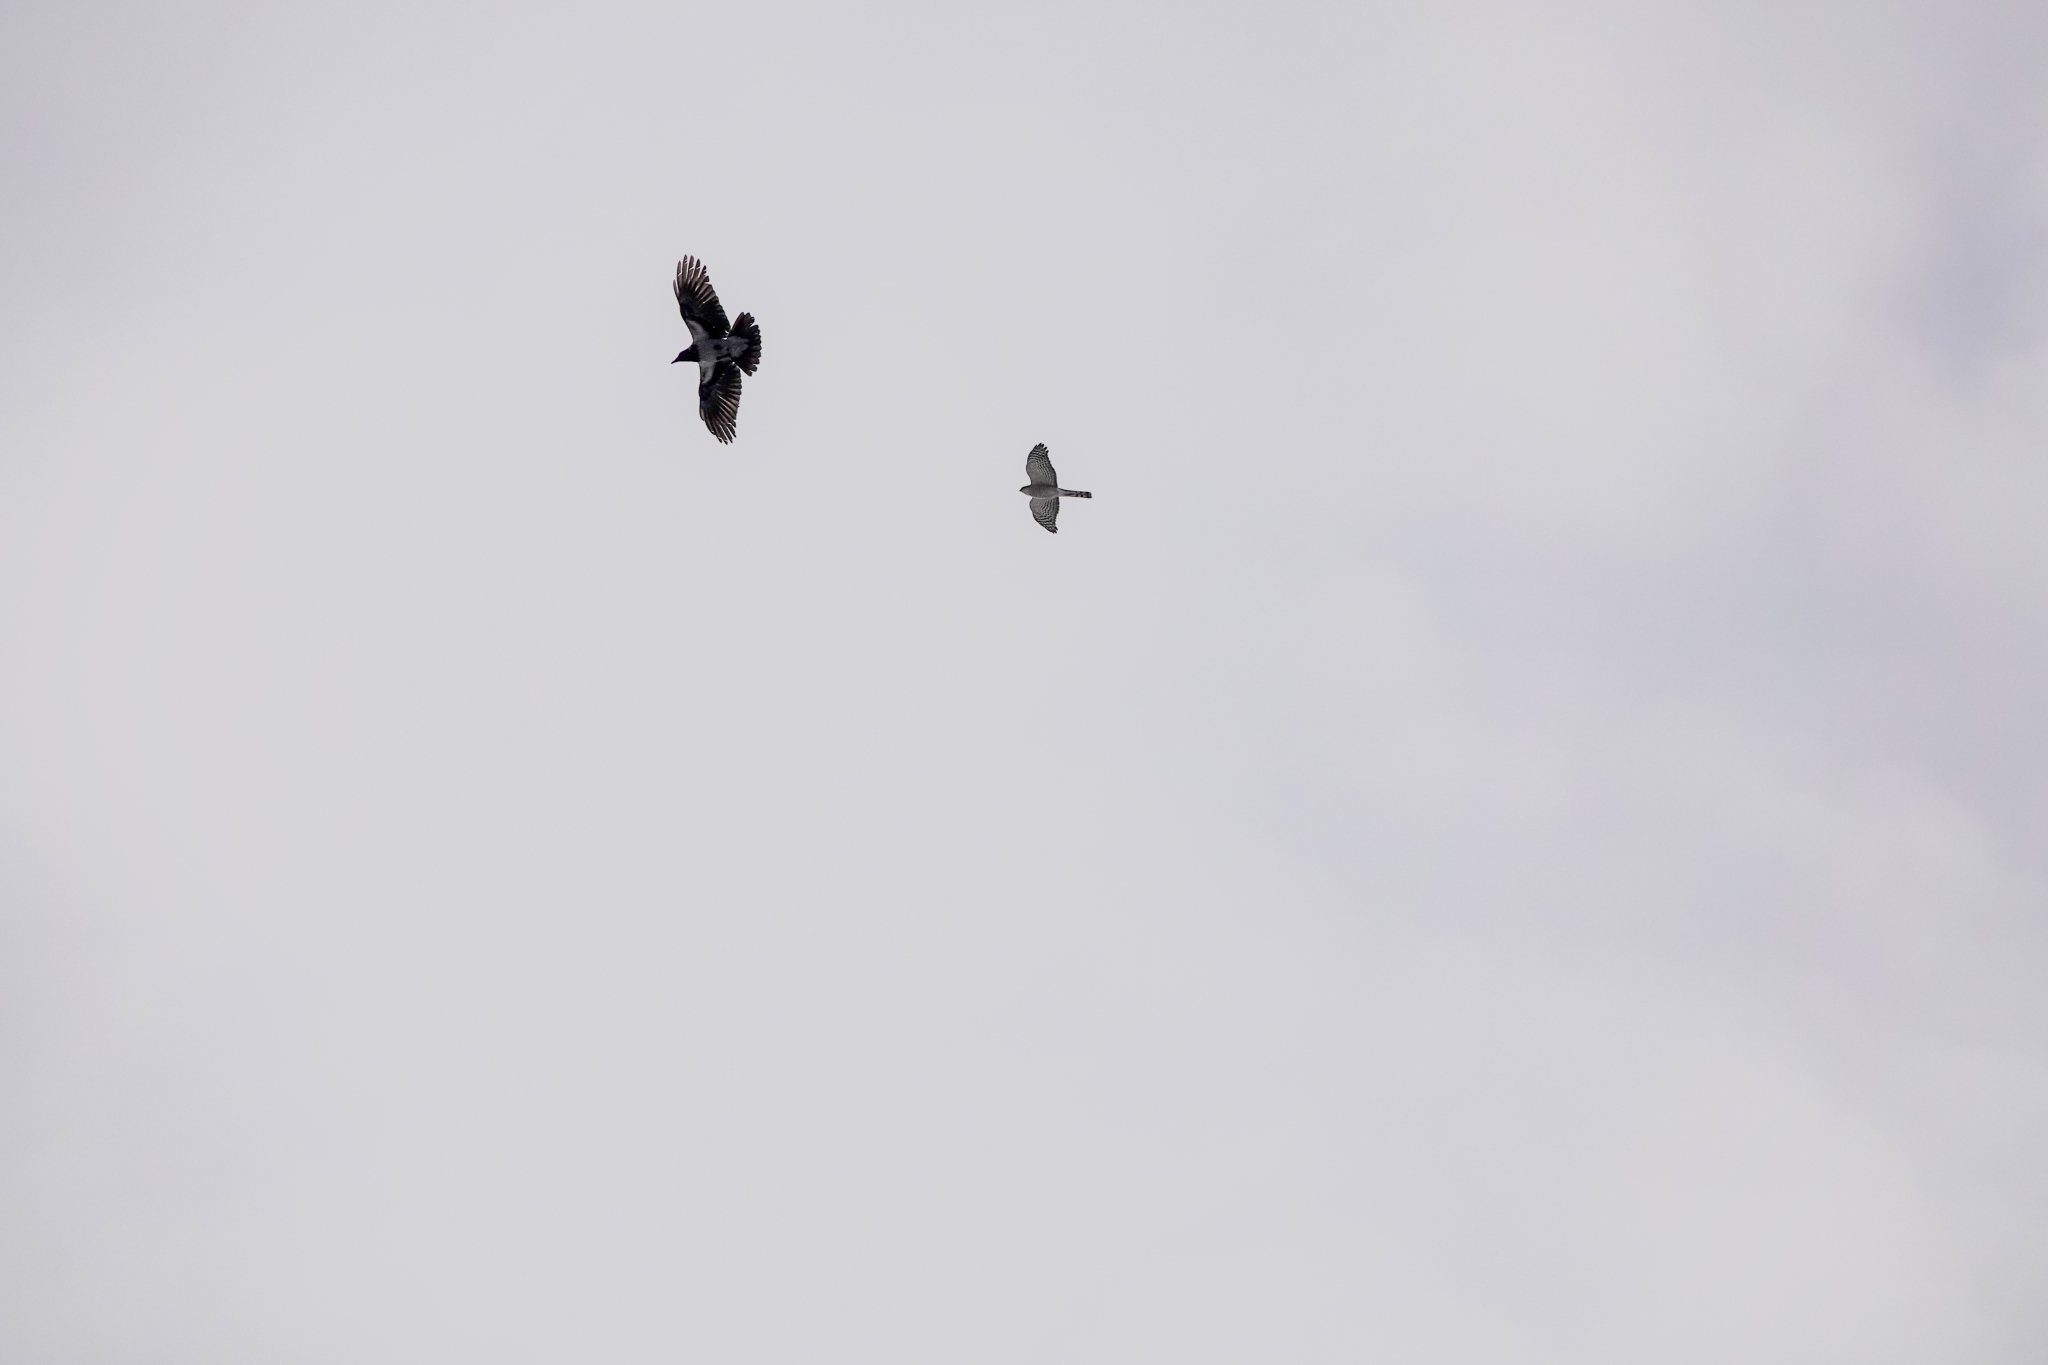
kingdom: Animalia
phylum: Chordata
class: Aves
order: Accipitriformes
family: Accipitridae
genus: Accipiter
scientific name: Accipiter nisus
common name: Eurasian sparrowhawk
